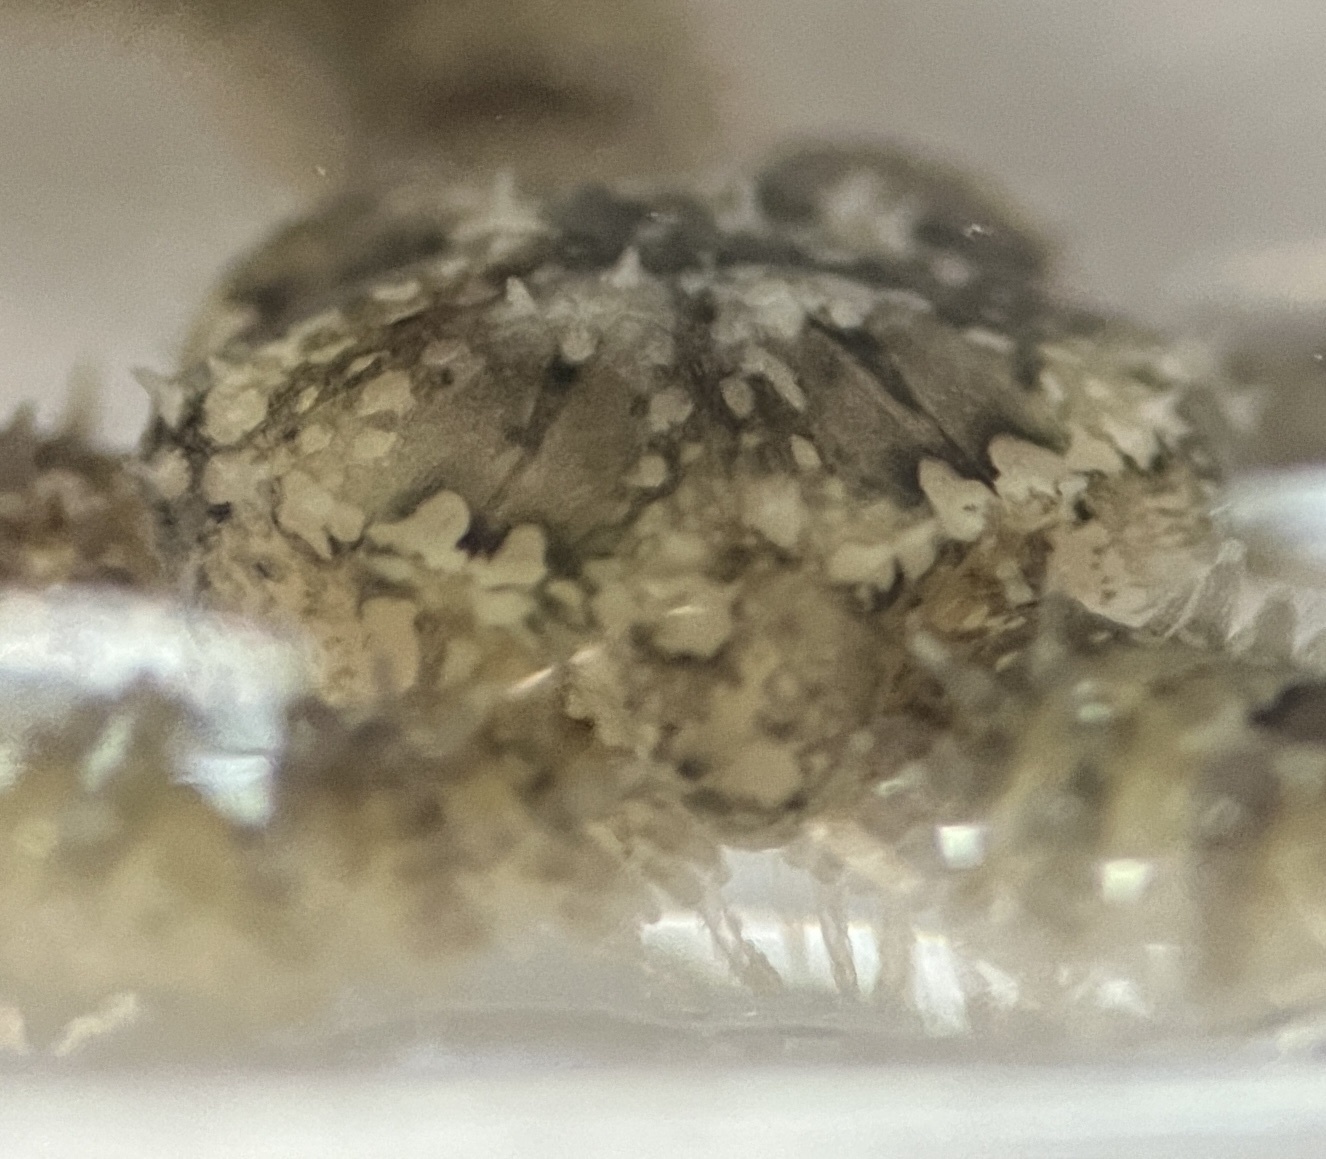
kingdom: Animalia
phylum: Echinodermata
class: Ophiuroidea
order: Amphilepidida
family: Ophiactidae
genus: Ophiactis
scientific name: Ophiactis savignyi
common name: Savigny's brittle star
